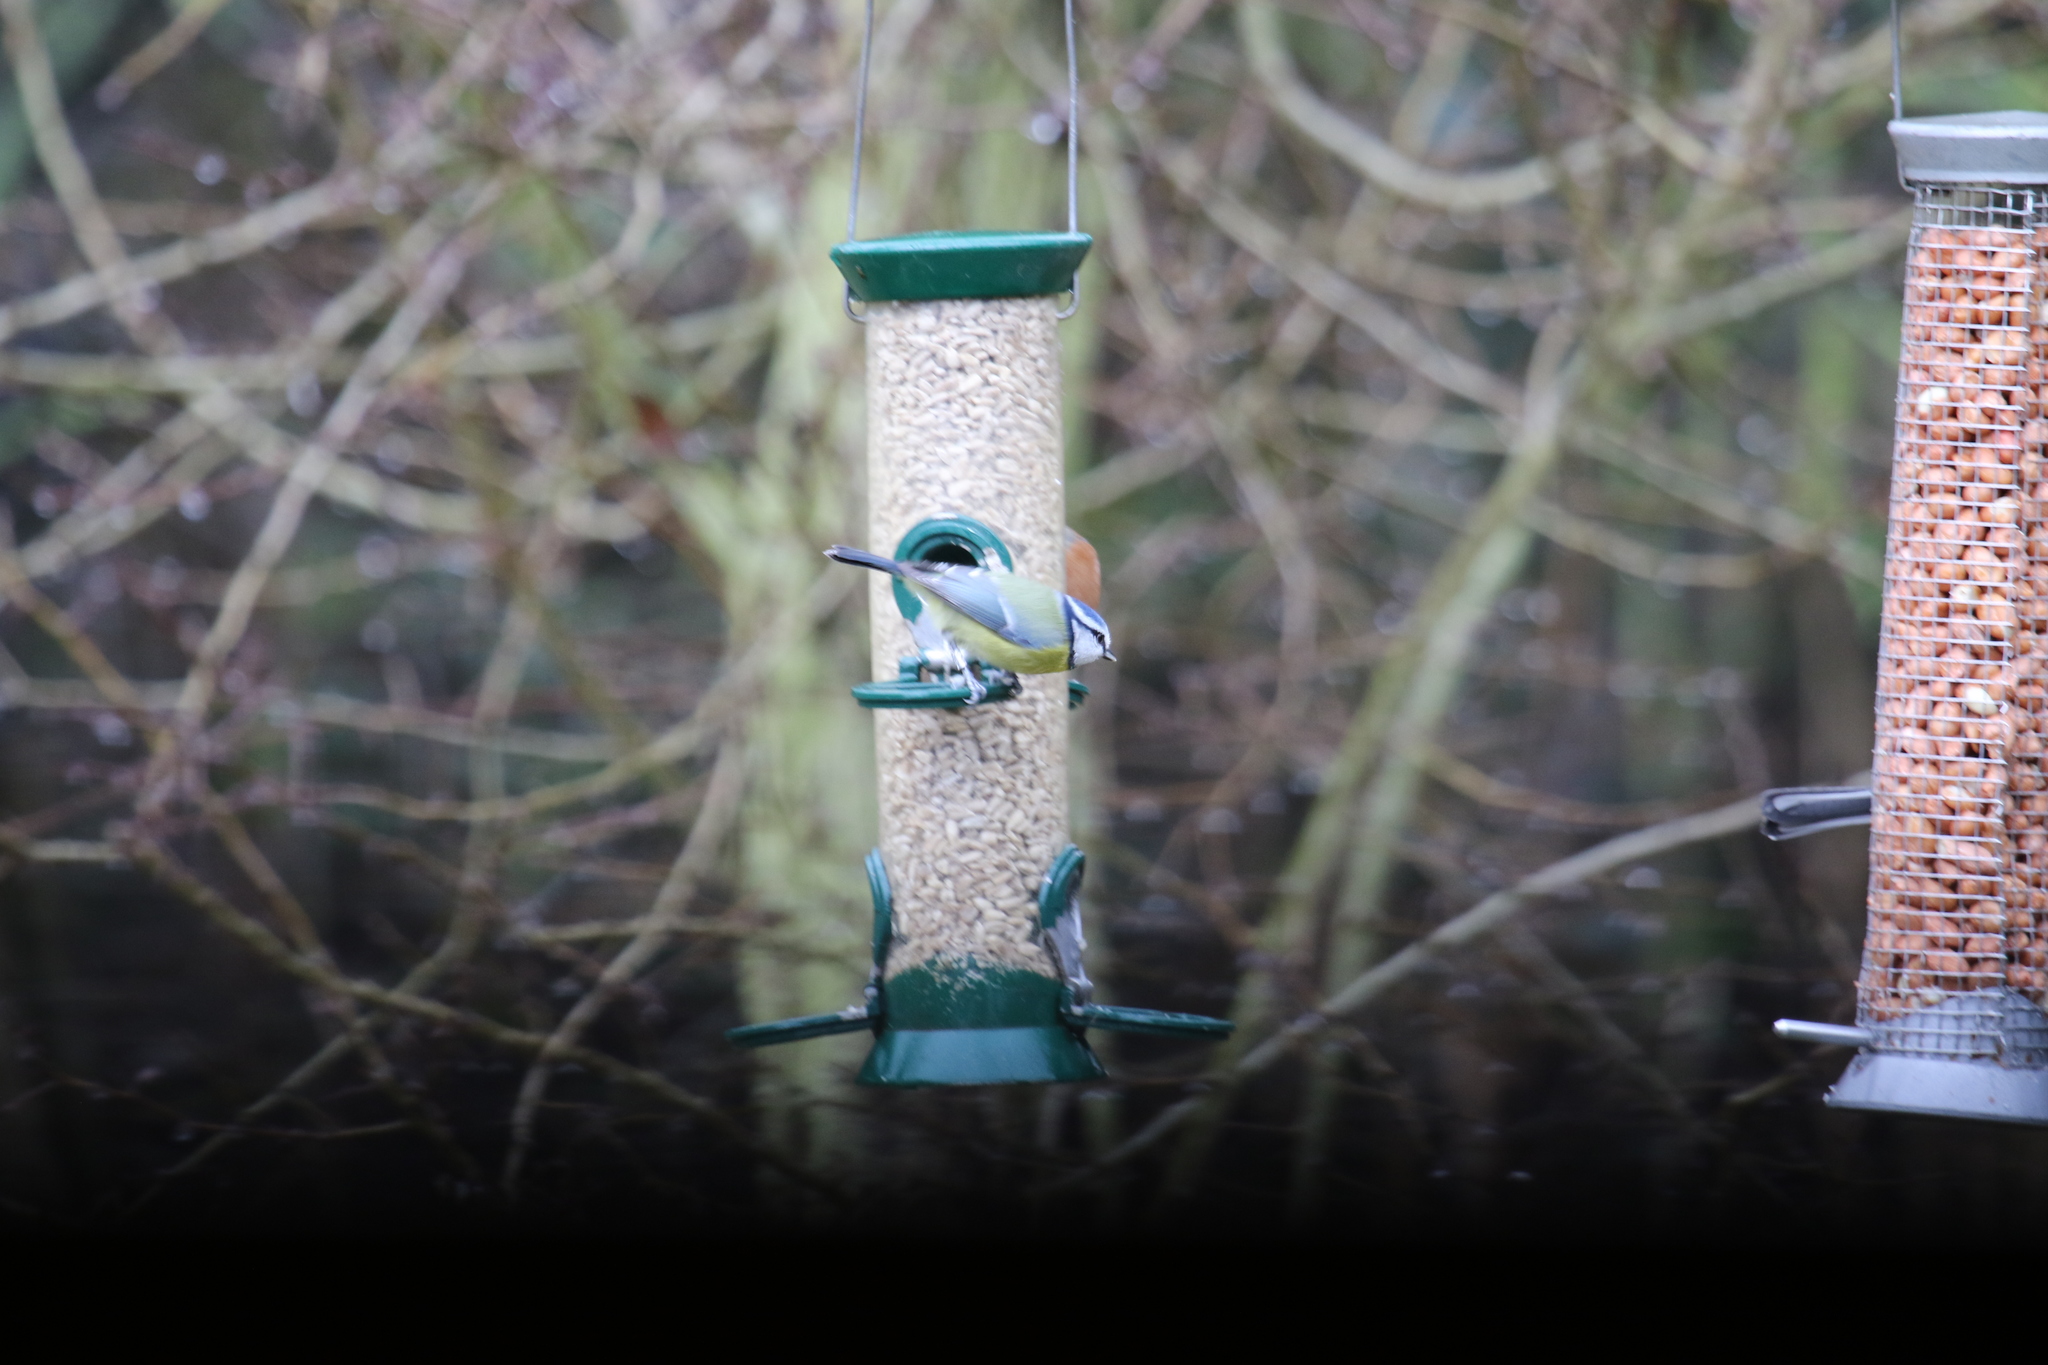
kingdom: Animalia
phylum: Chordata
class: Aves
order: Passeriformes
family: Paridae
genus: Cyanistes
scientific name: Cyanistes caeruleus
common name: Eurasian blue tit
